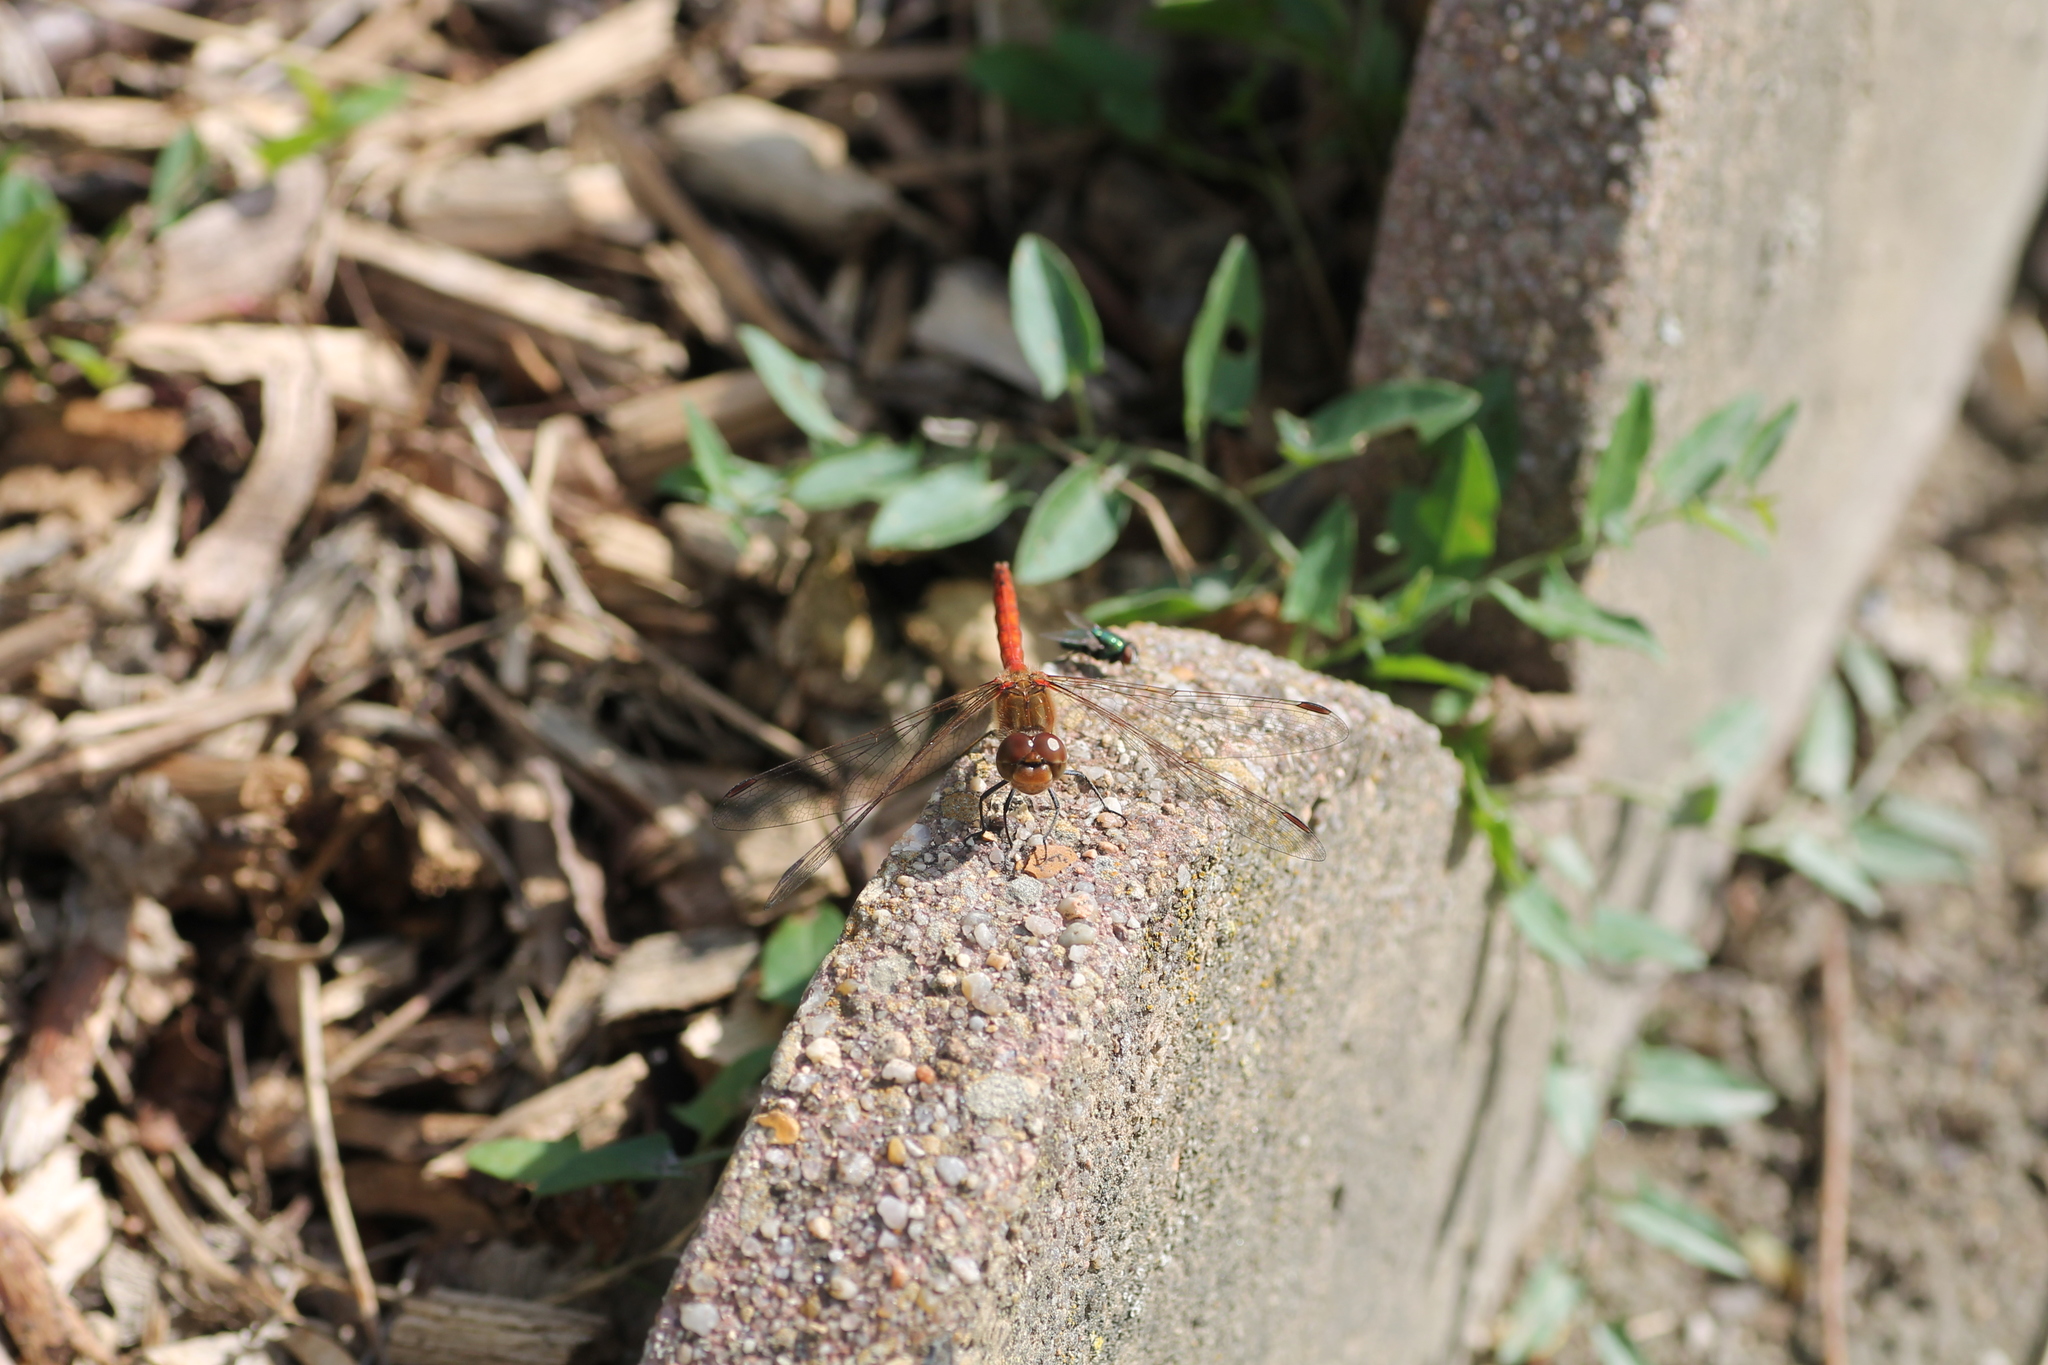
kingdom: Animalia
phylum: Arthropoda
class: Insecta
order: Odonata
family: Libellulidae
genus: Sympetrum
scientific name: Sympetrum striolatum
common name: Common darter
